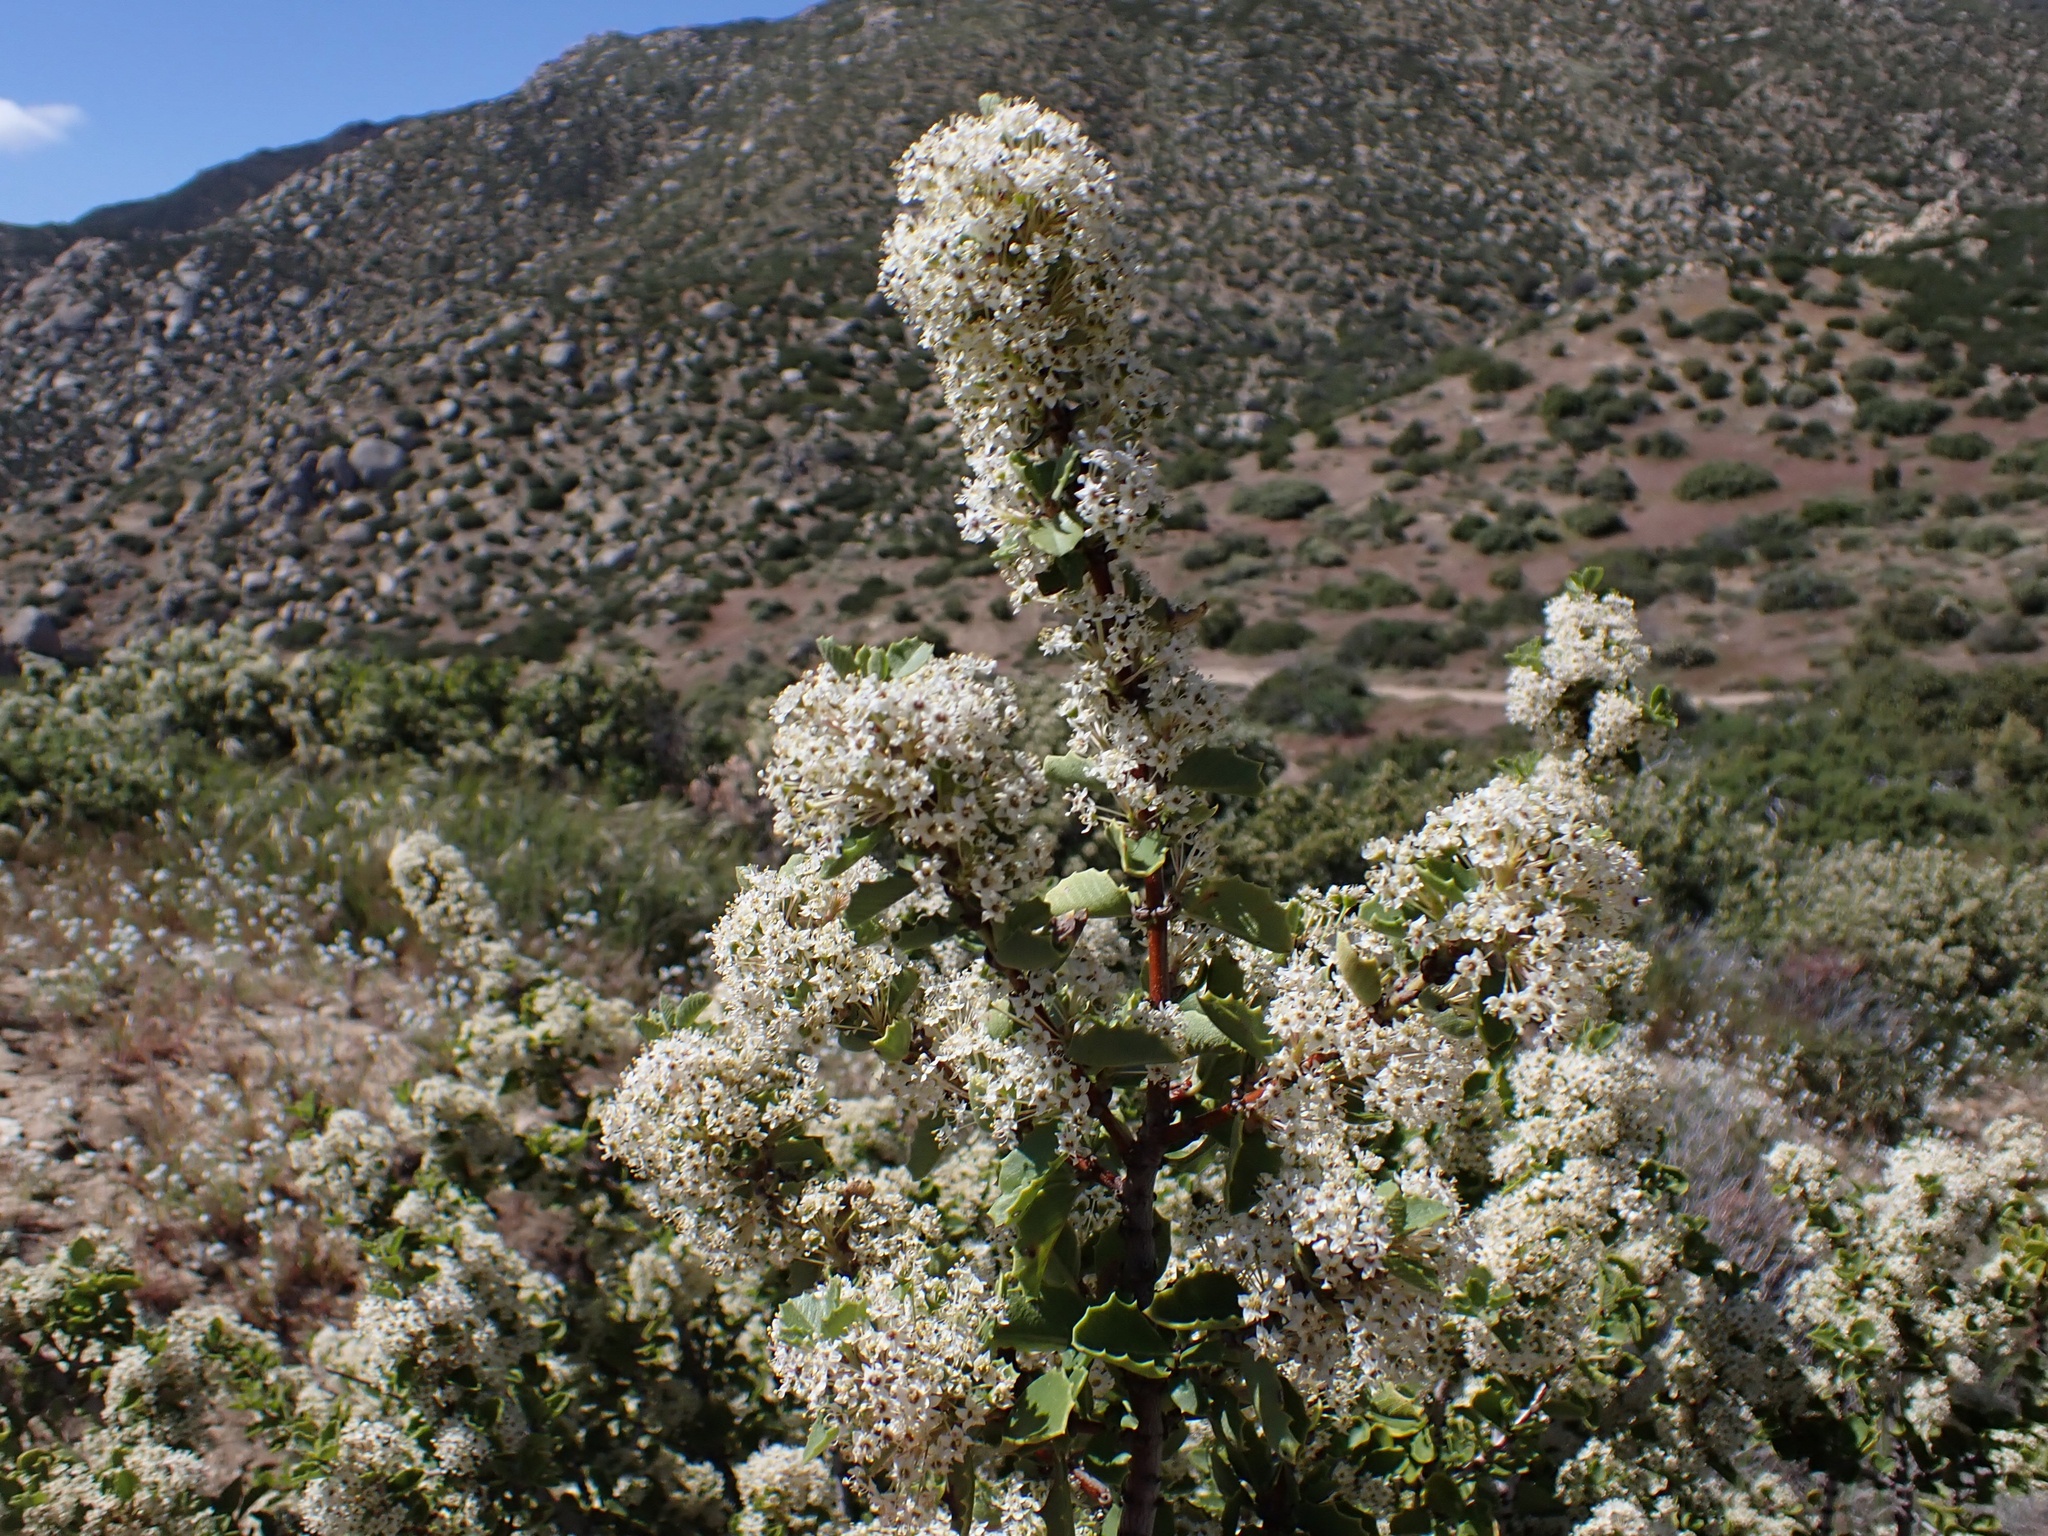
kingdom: Plantae
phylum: Tracheophyta
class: Magnoliopsida
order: Rosales
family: Rhamnaceae
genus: Ceanothus
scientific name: Ceanothus perplexans
